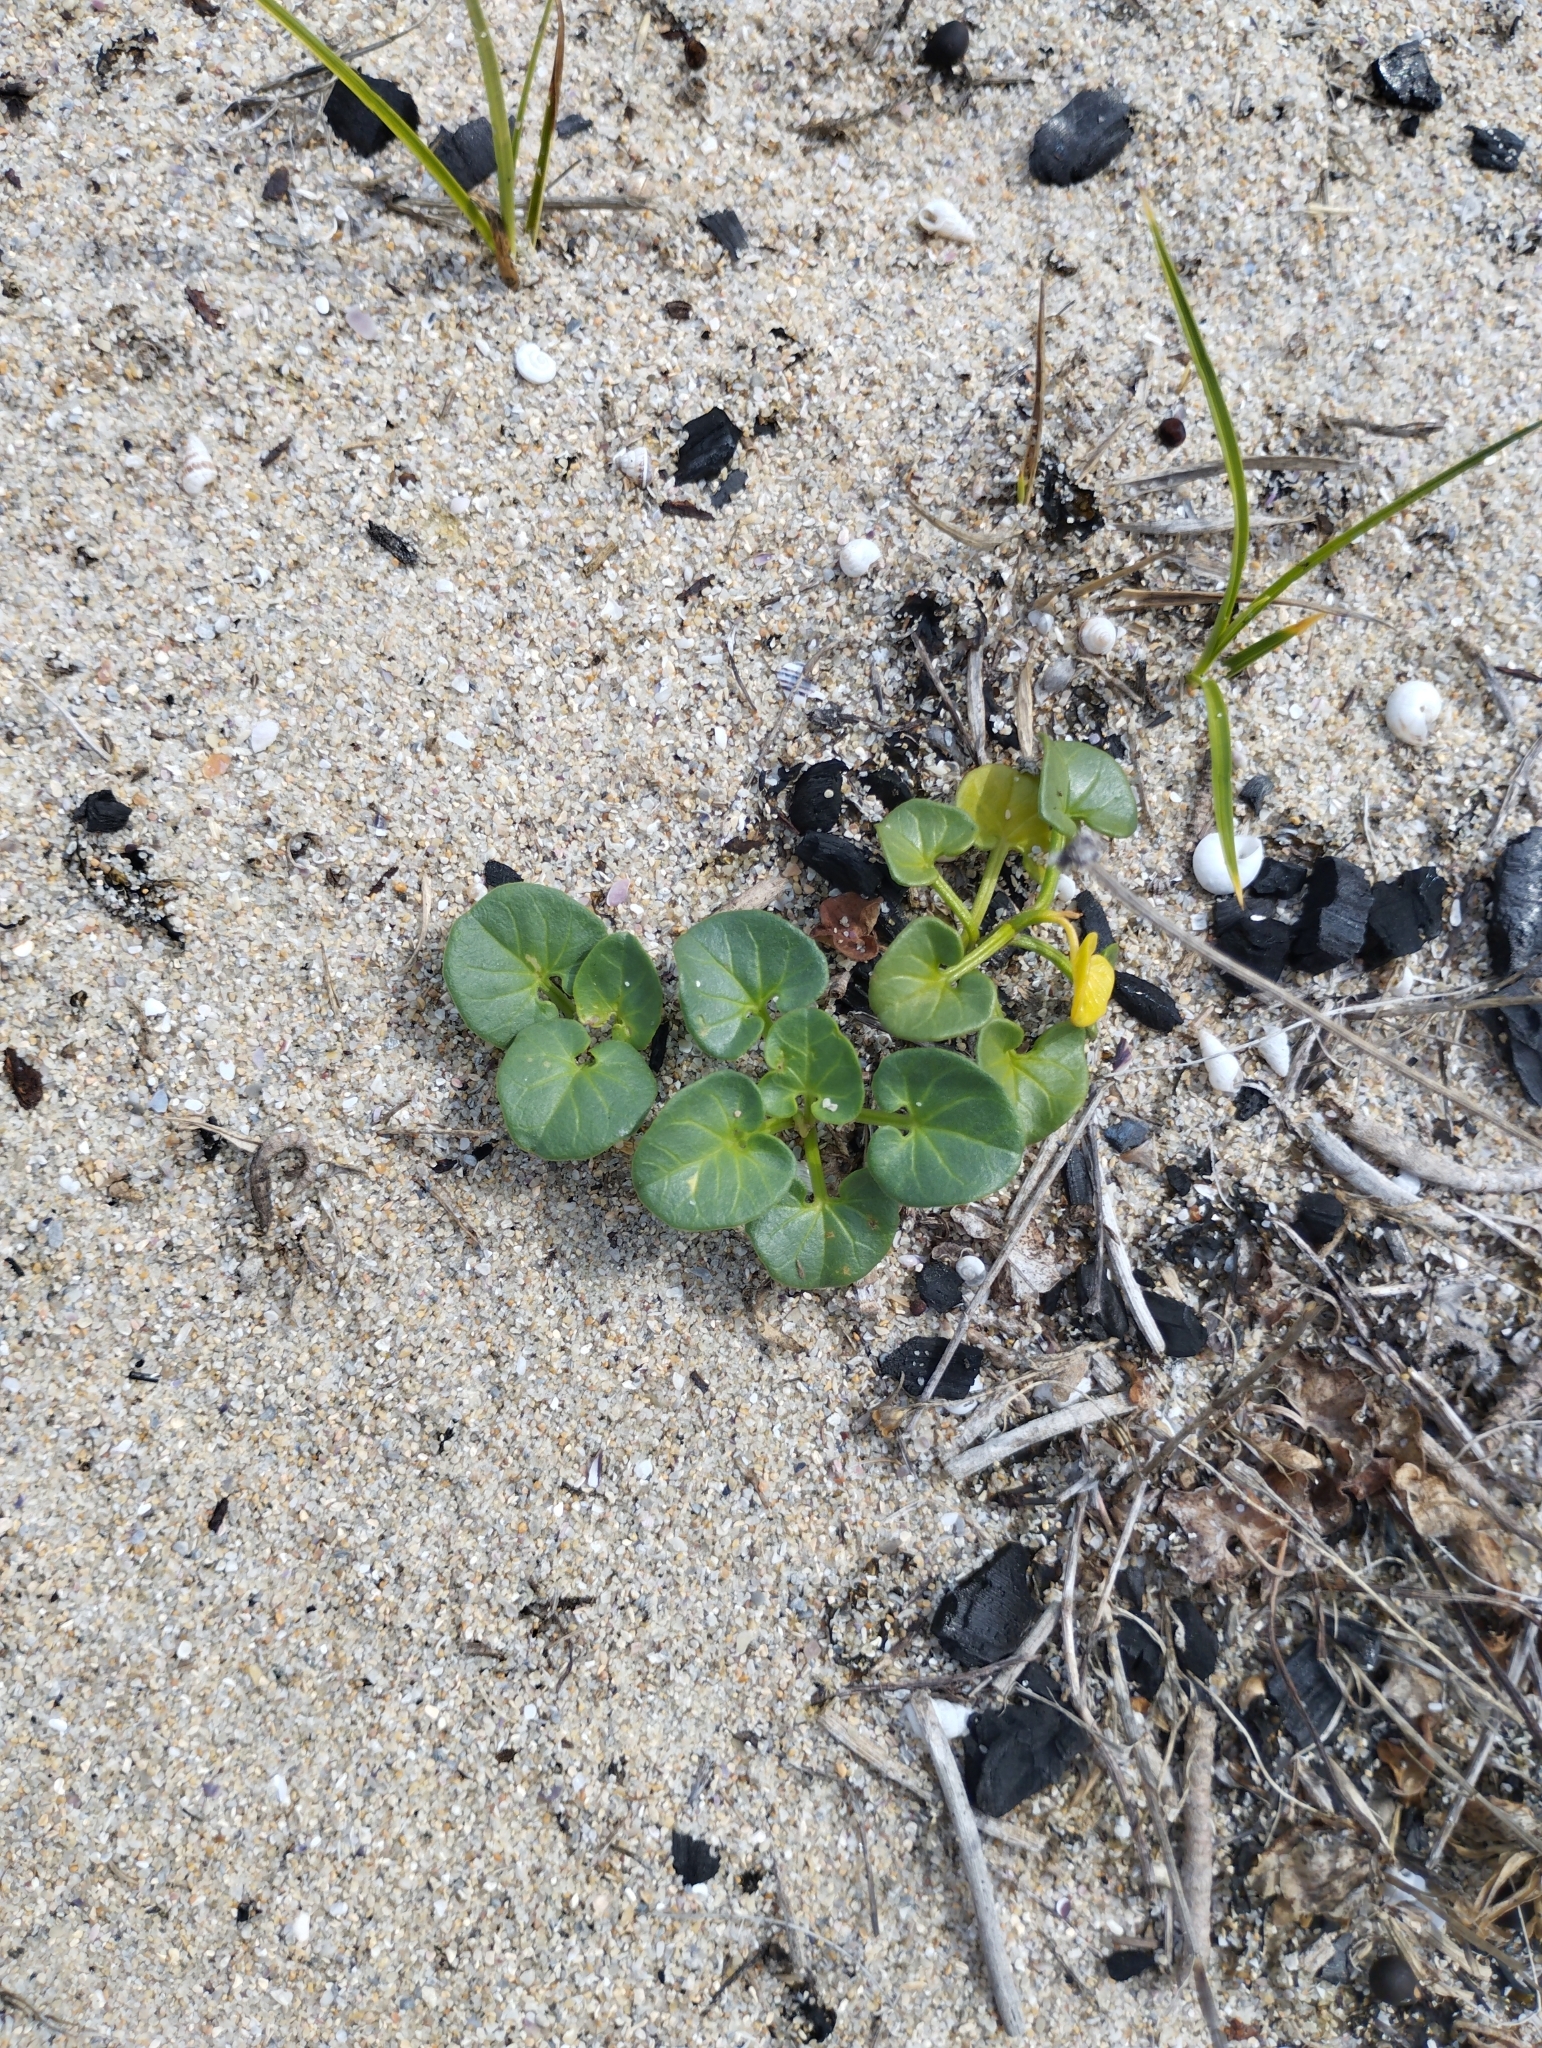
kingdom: Plantae
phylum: Tracheophyta
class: Magnoliopsida
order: Solanales
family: Convolvulaceae
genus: Calystegia
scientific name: Calystegia soldanella
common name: Sea bindweed
